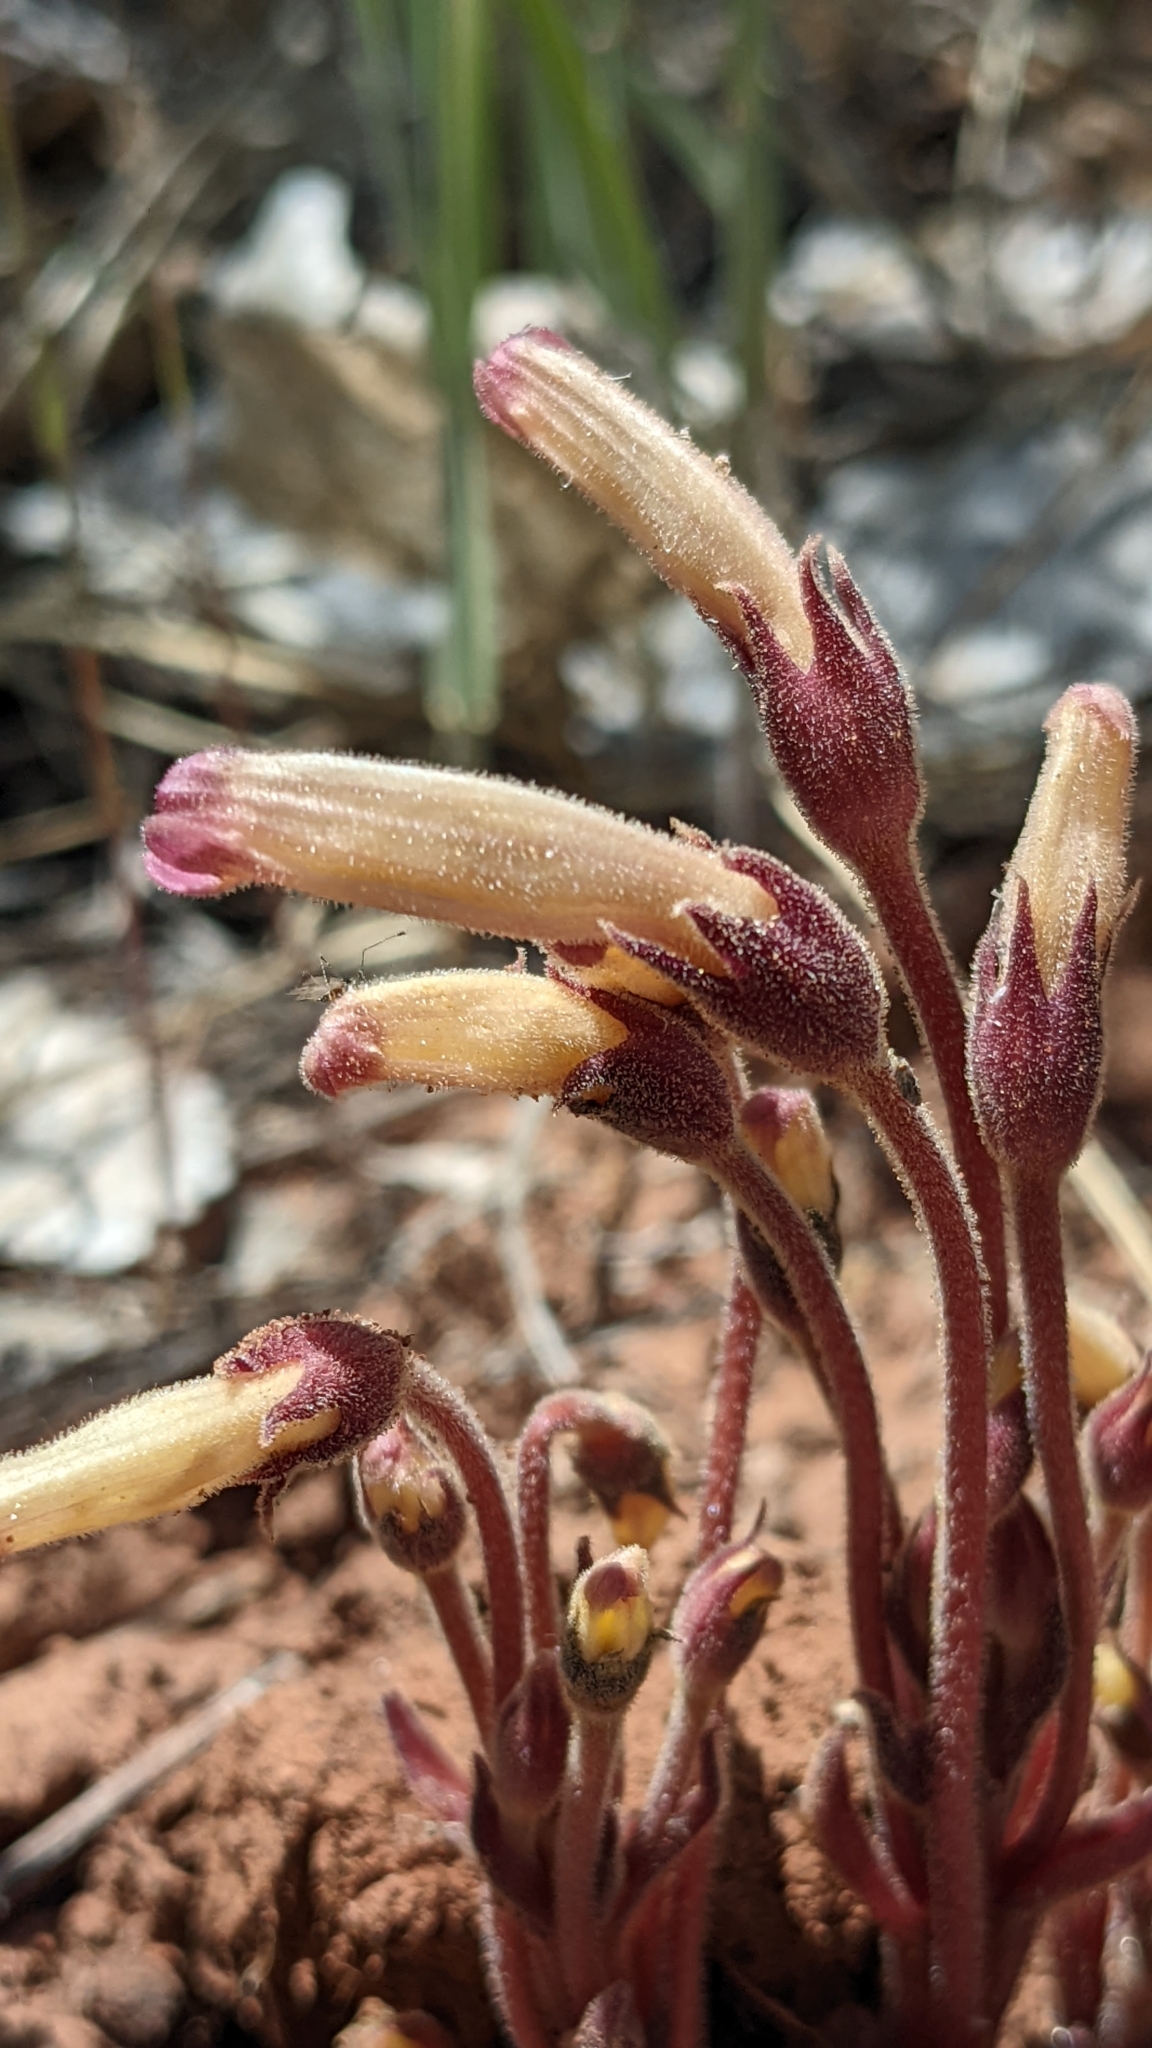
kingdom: Plantae
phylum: Tracheophyta
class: Magnoliopsida
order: Lamiales
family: Orobanchaceae
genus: Aphyllon
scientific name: Aphyllon fasciculatum
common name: Clustered broomrape
